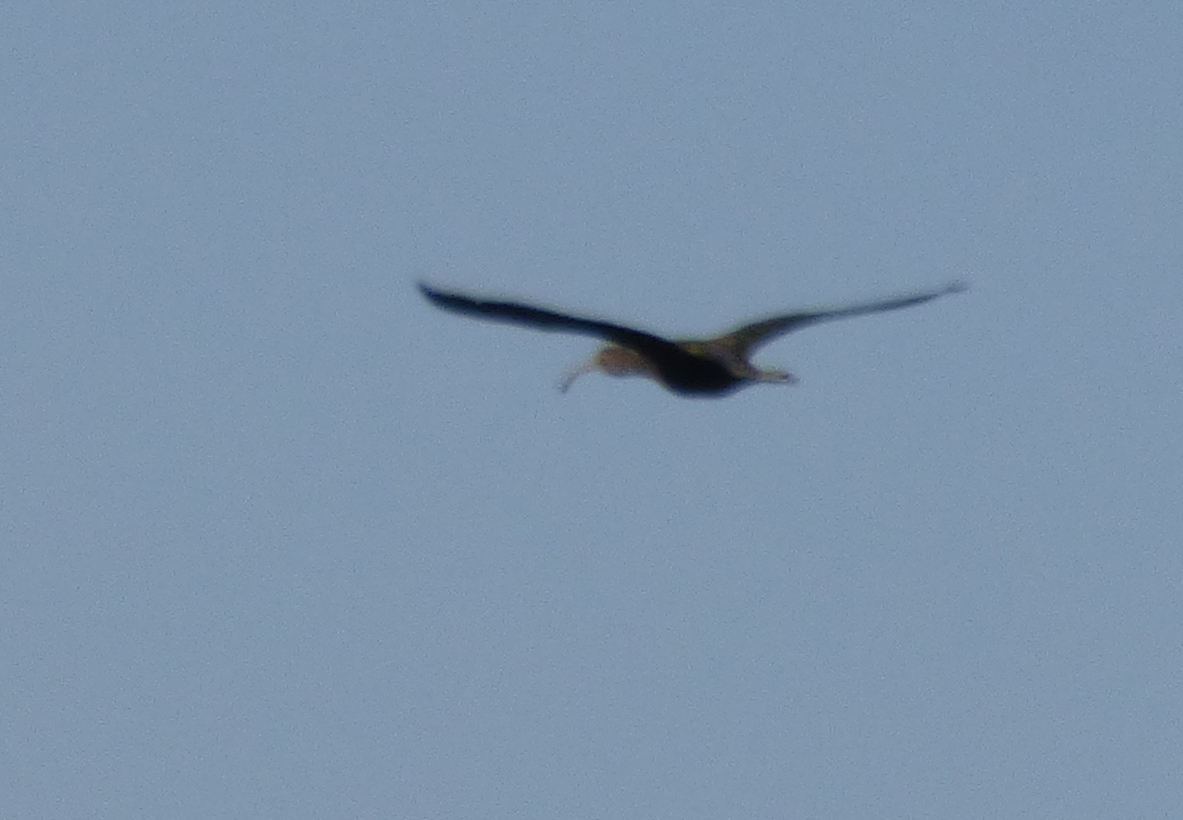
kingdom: Animalia
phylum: Chordata
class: Aves
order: Pelecaniformes
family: Threskiornithidae
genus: Plegadis
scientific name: Plegadis chihi
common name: White-faced ibis
